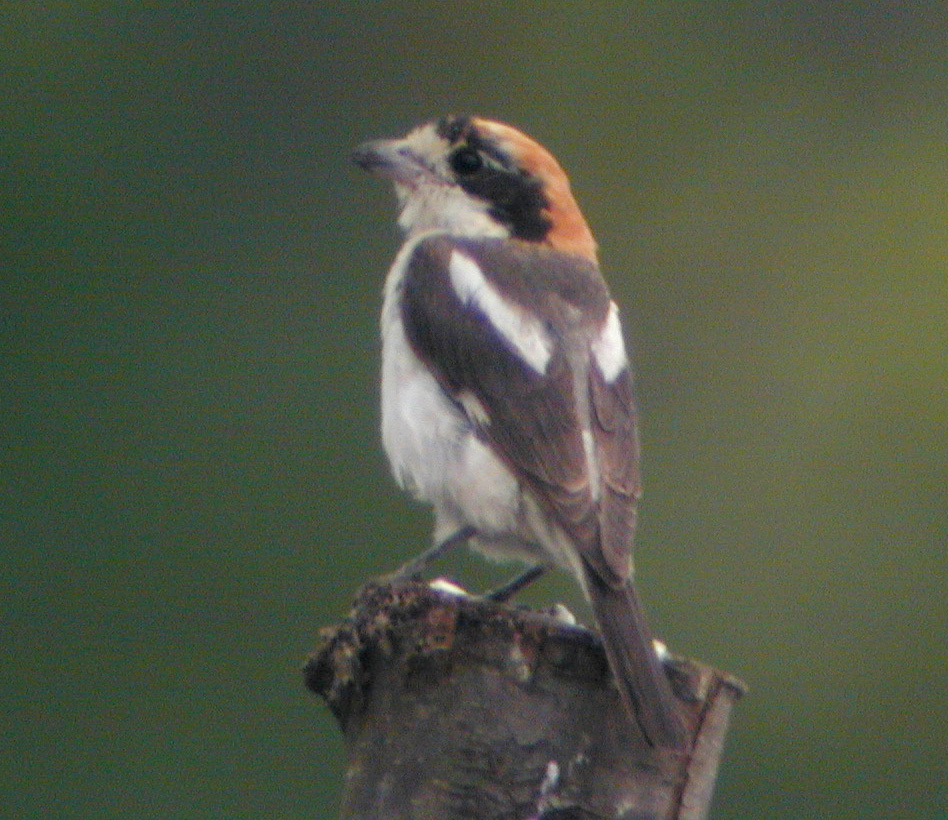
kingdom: Animalia
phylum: Chordata
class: Aves
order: Passeriformes
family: Laniidae
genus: Lanius
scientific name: Lanius senator
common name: Woodchat shrike
